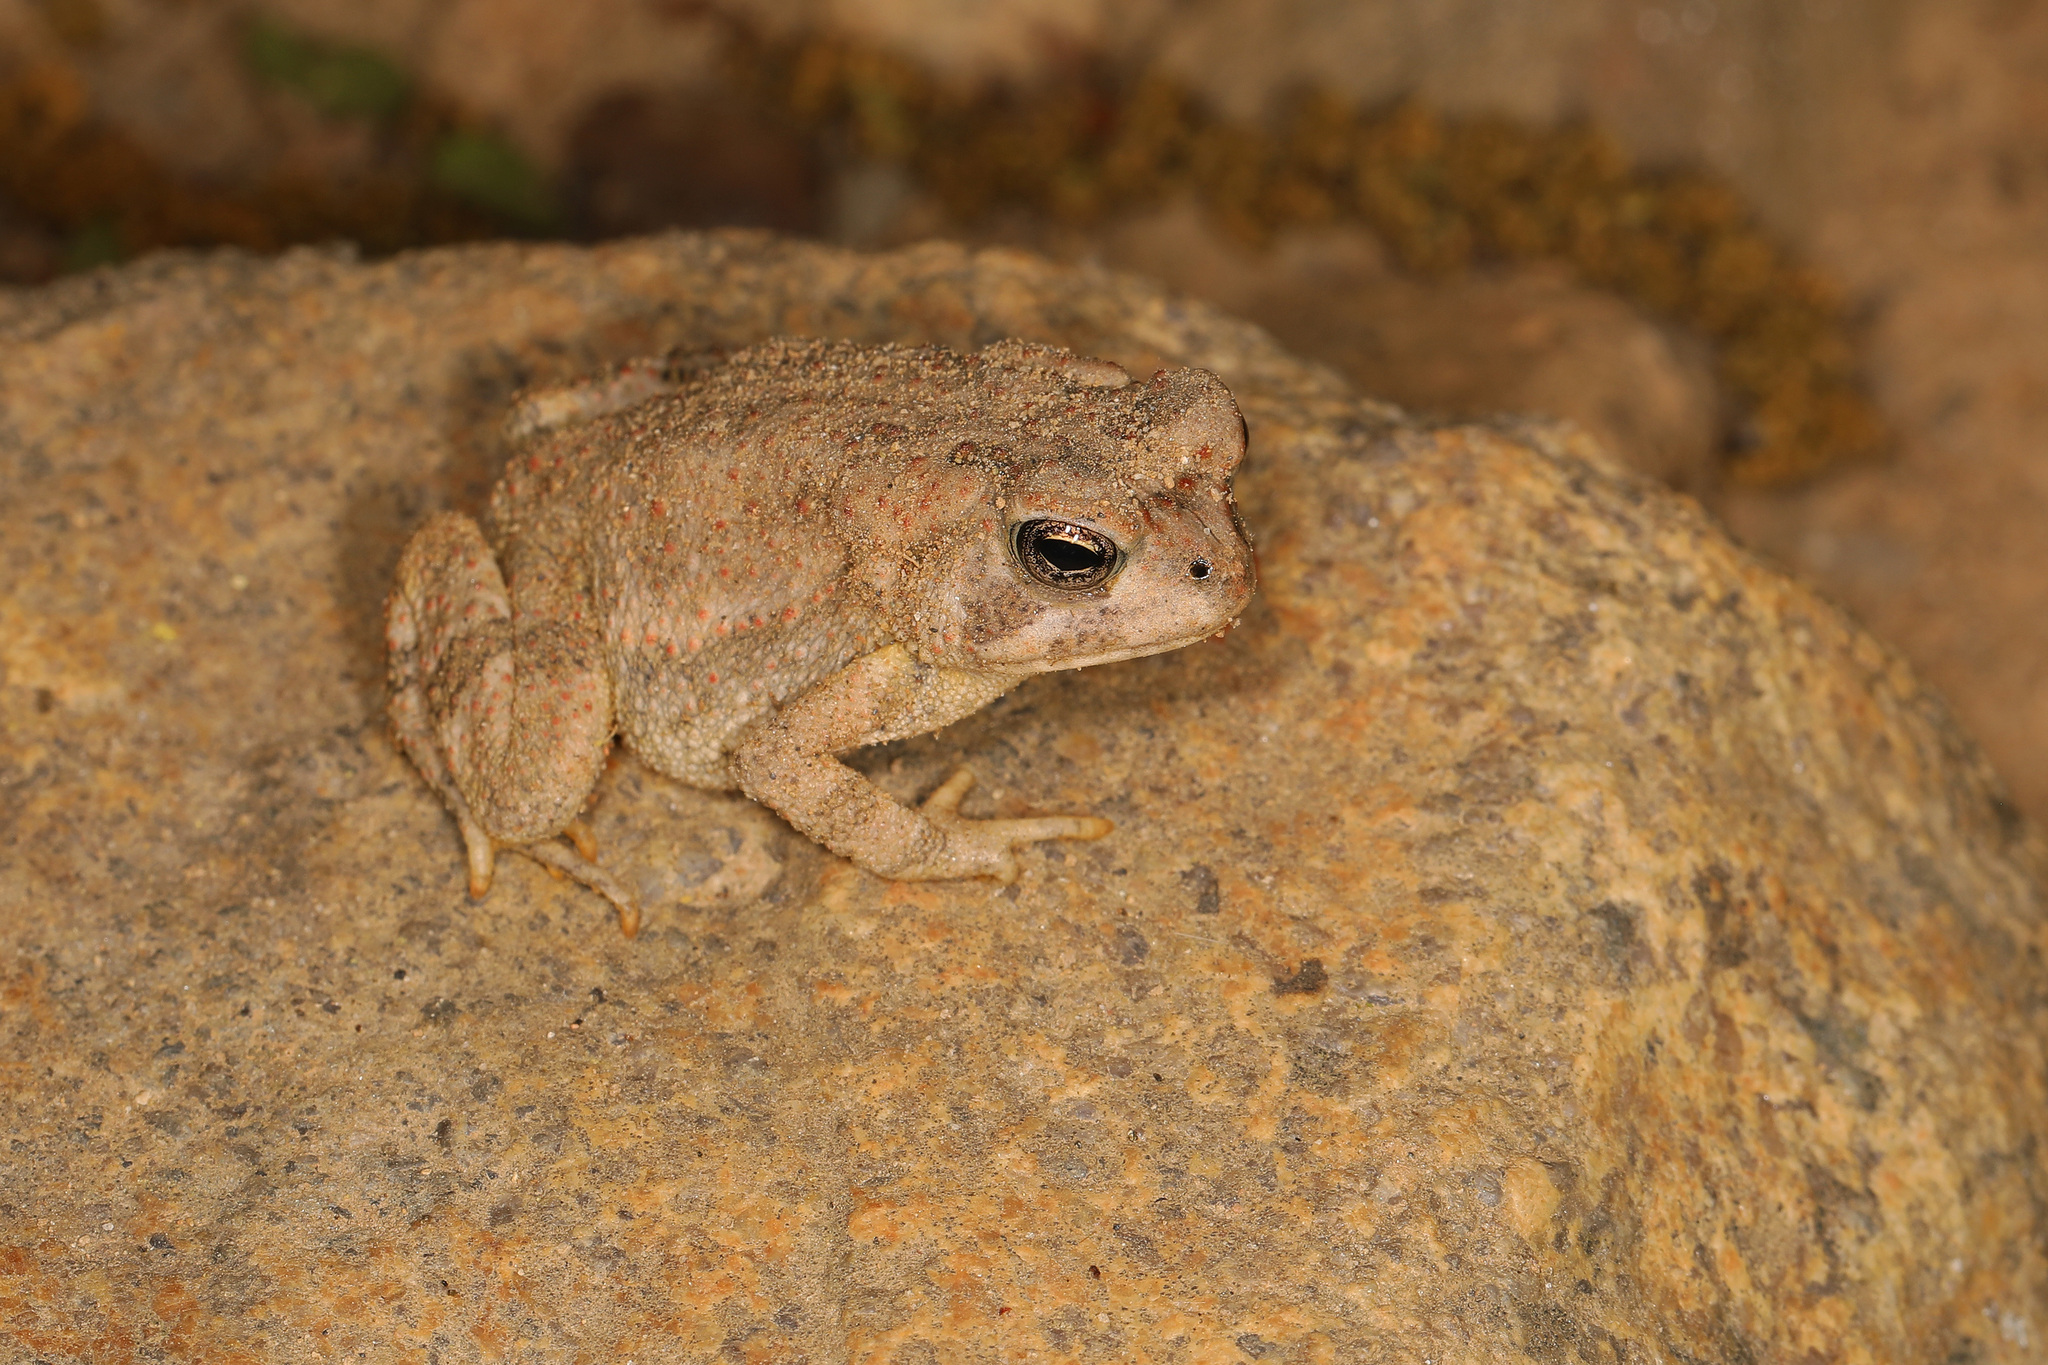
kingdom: Animalia
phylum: Chordata
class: Amphibia
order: Anura
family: Bufonidae
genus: Anaxyrus
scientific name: Anaxyrus fowleri
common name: Fowler's toad
